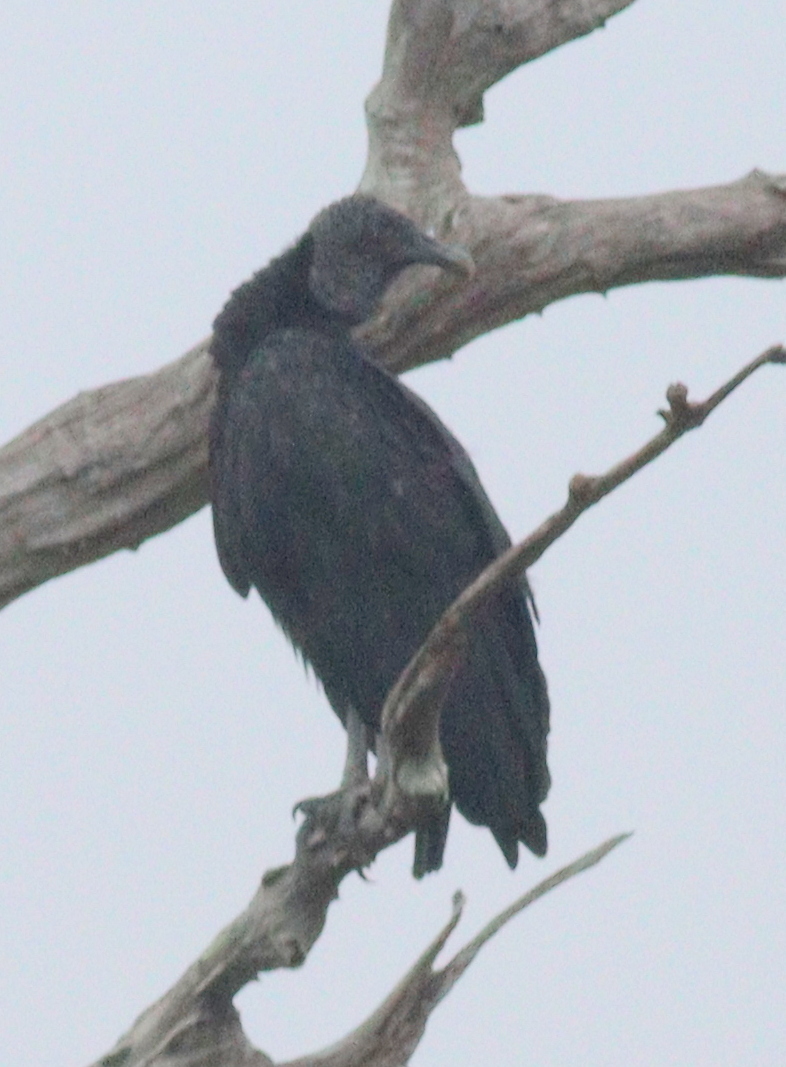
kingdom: Animalia
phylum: Chordata
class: Aves
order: Accipitriformes
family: Cathartidae
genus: Coragyps
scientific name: Coragyps atratus
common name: Black vulture
